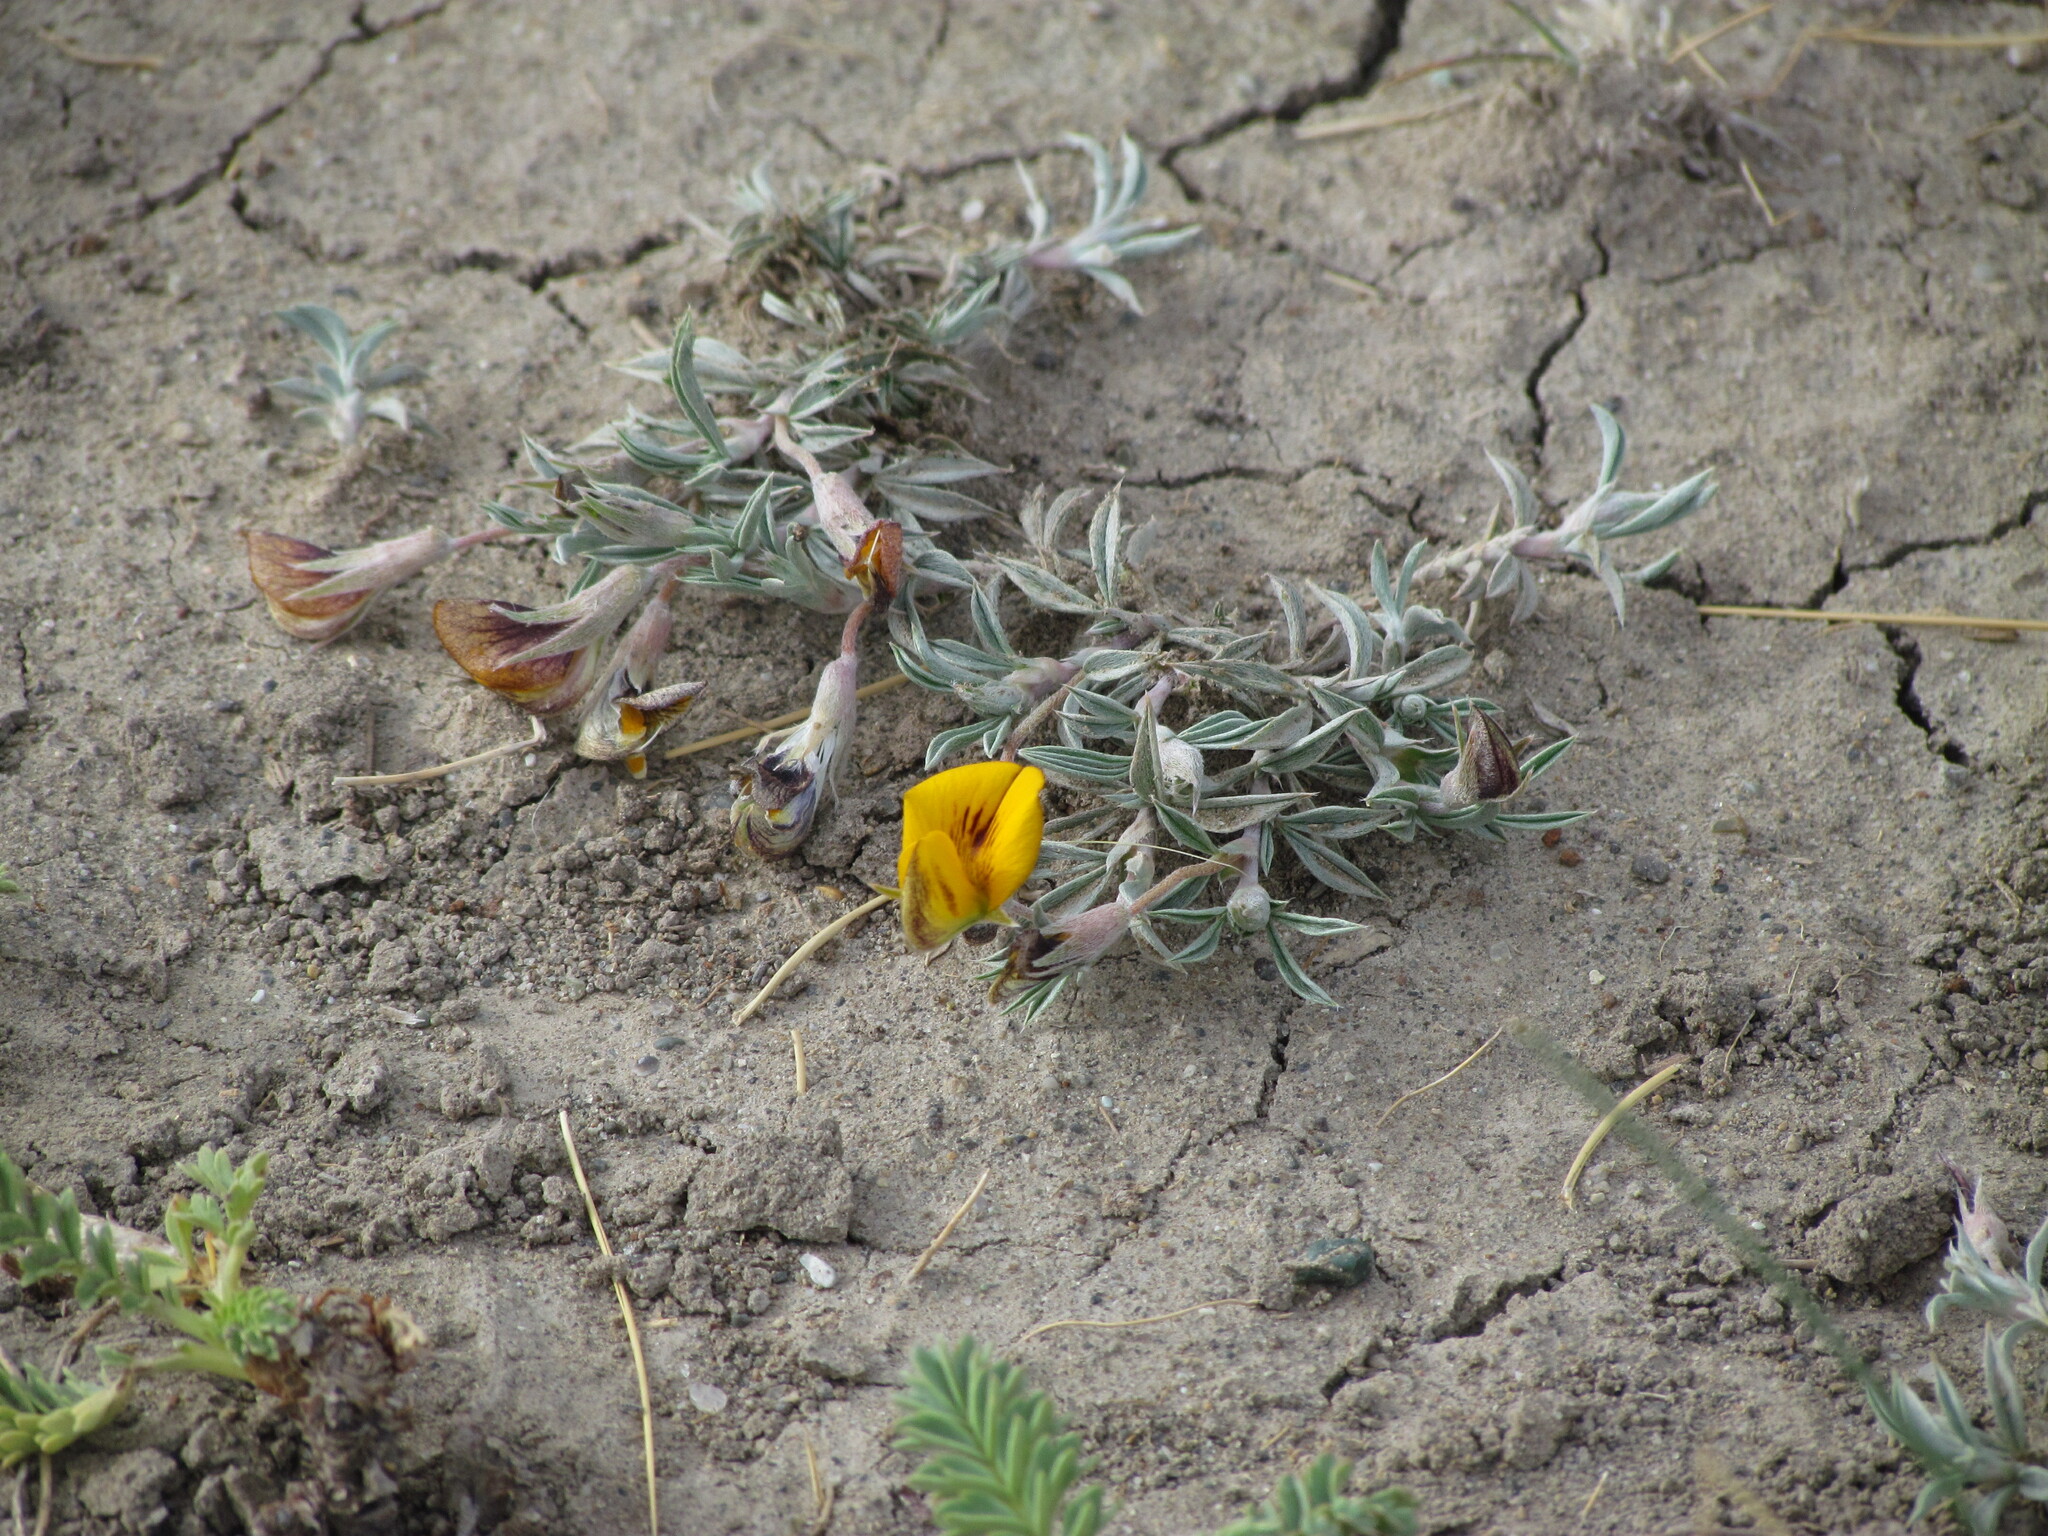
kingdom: Plantae
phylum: Tracheophyta
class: Magnoliopsida
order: Fabales
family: Fabaceae
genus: Adesmia
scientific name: Adesmia lotoides
